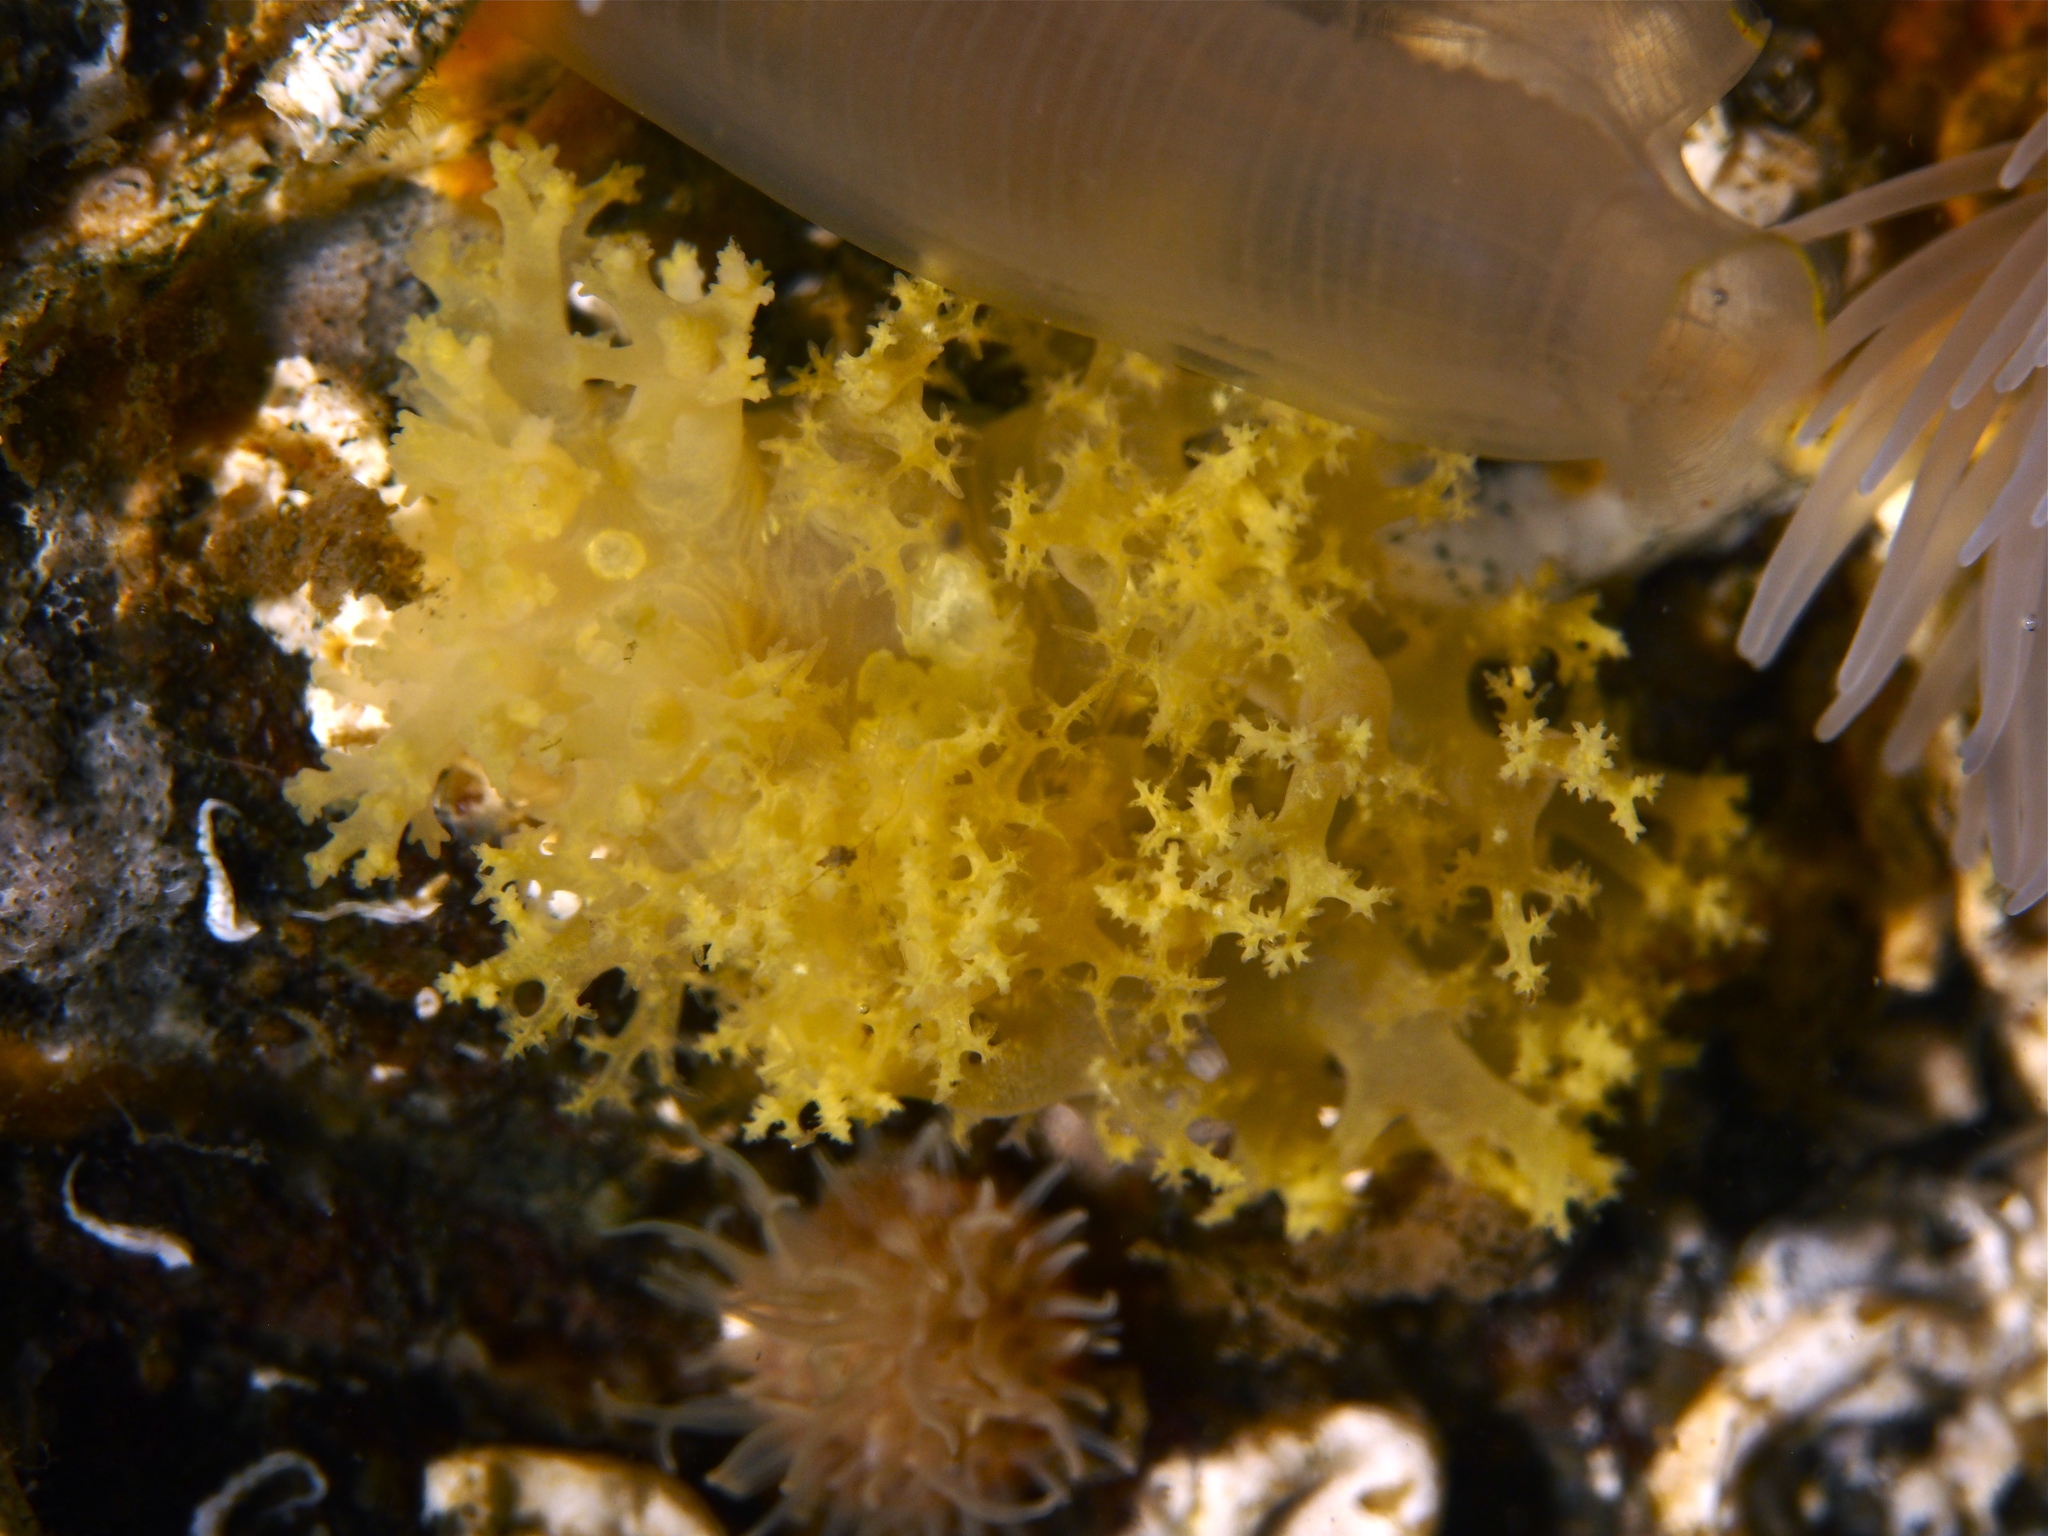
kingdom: Animalia
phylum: Mollusca
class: Gastropoda
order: Nudibranchia
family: Dendronotidae
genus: Dendronotus
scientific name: Dendronotus lacteus
